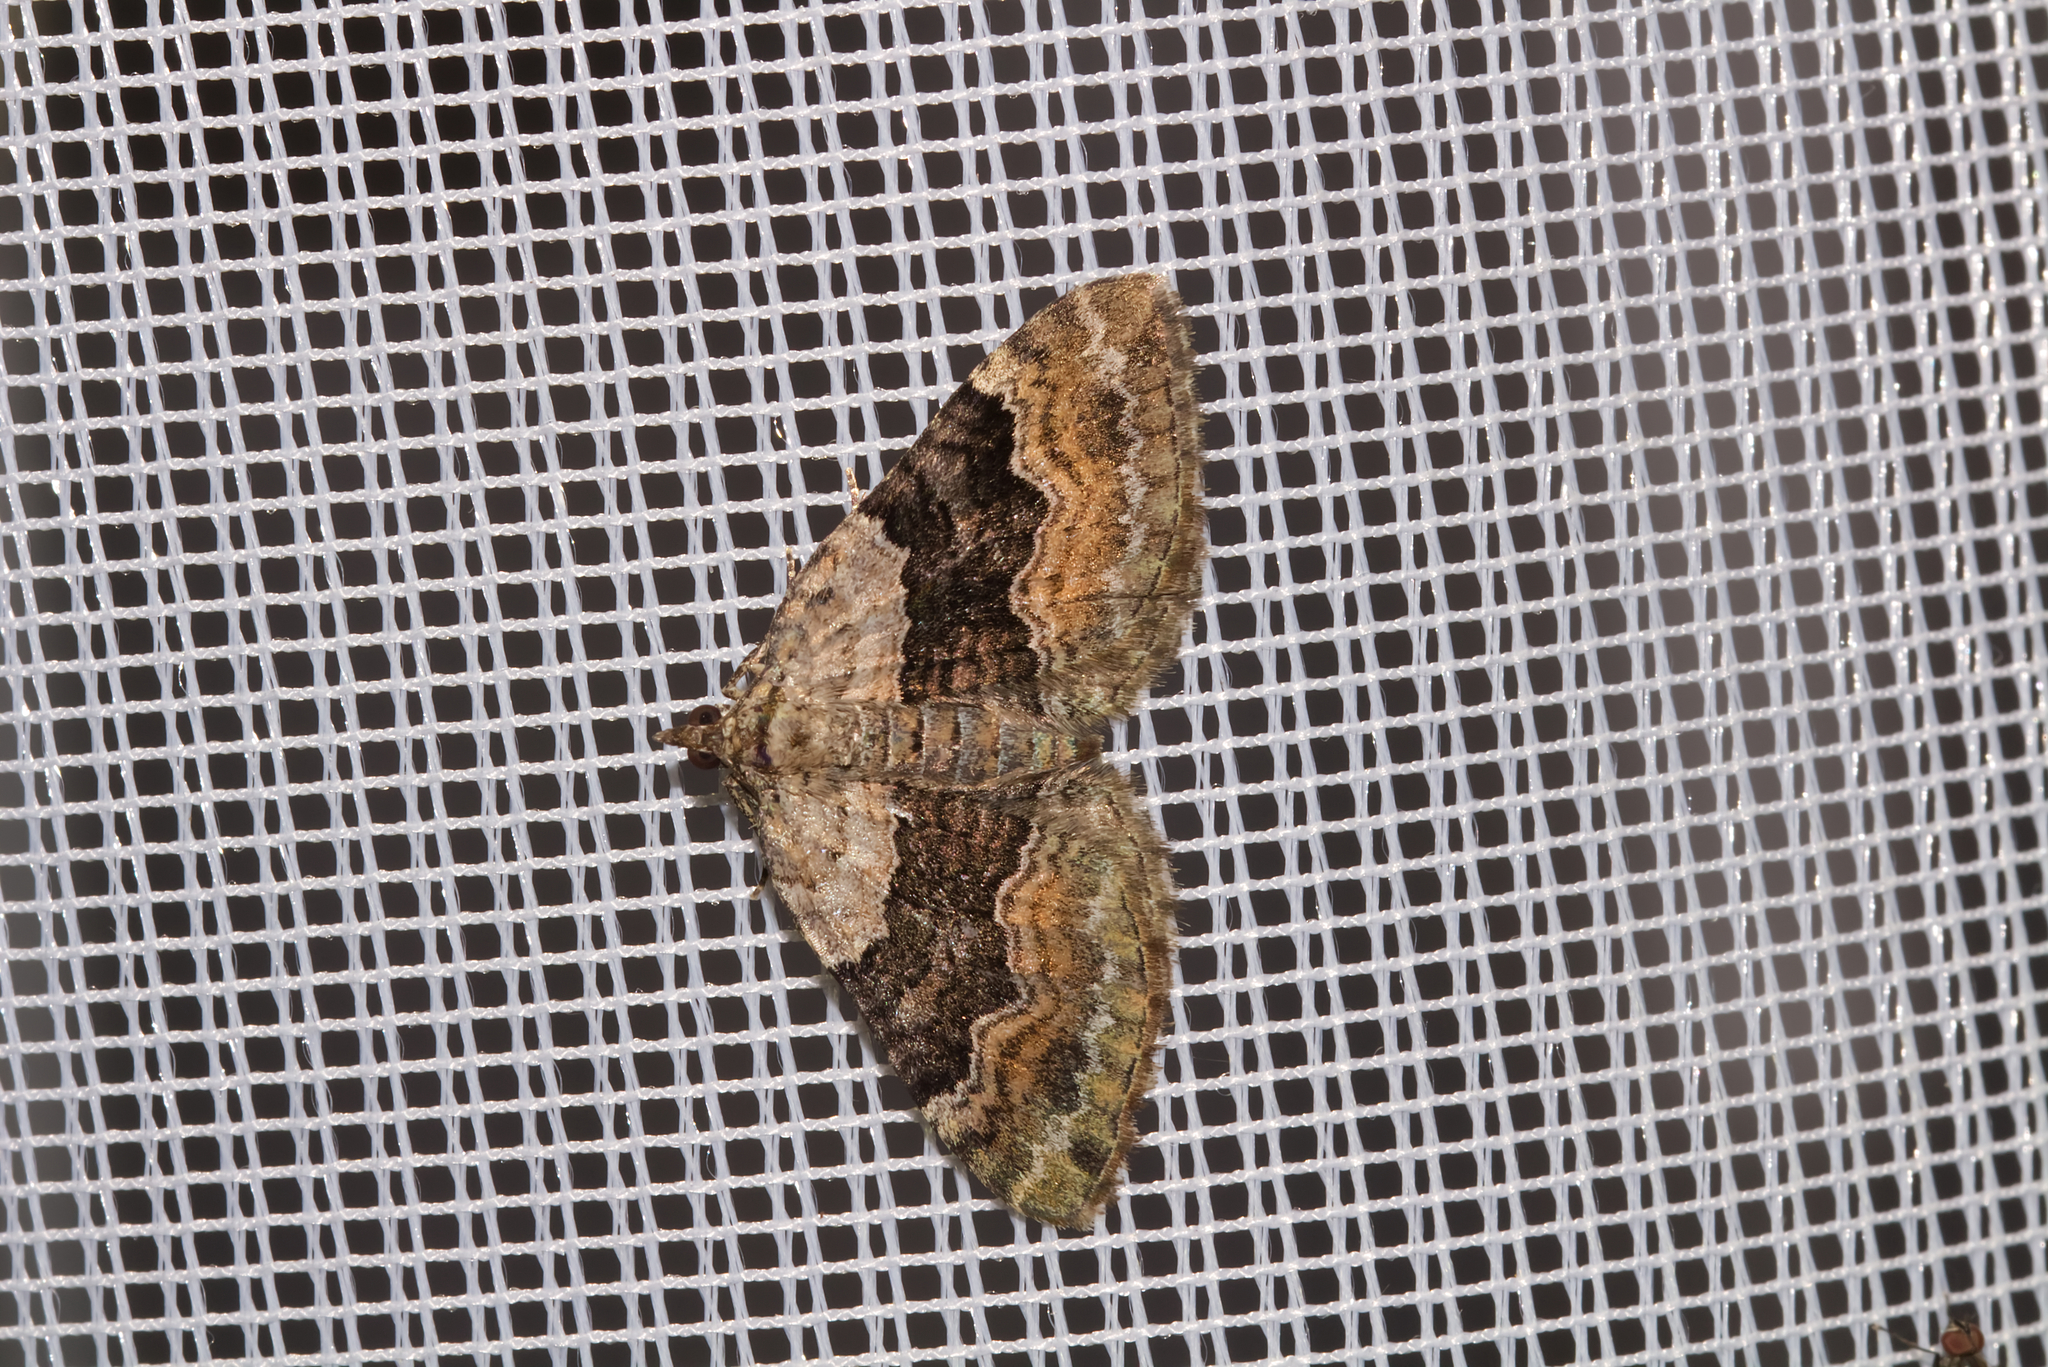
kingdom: Animalia
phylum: Arthropoda
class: Insecta
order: Lepidoptera
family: Geometridae
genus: Xanthorhoe
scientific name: Xanthorhoe quadrifasiata
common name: Large twin-spot carpet
